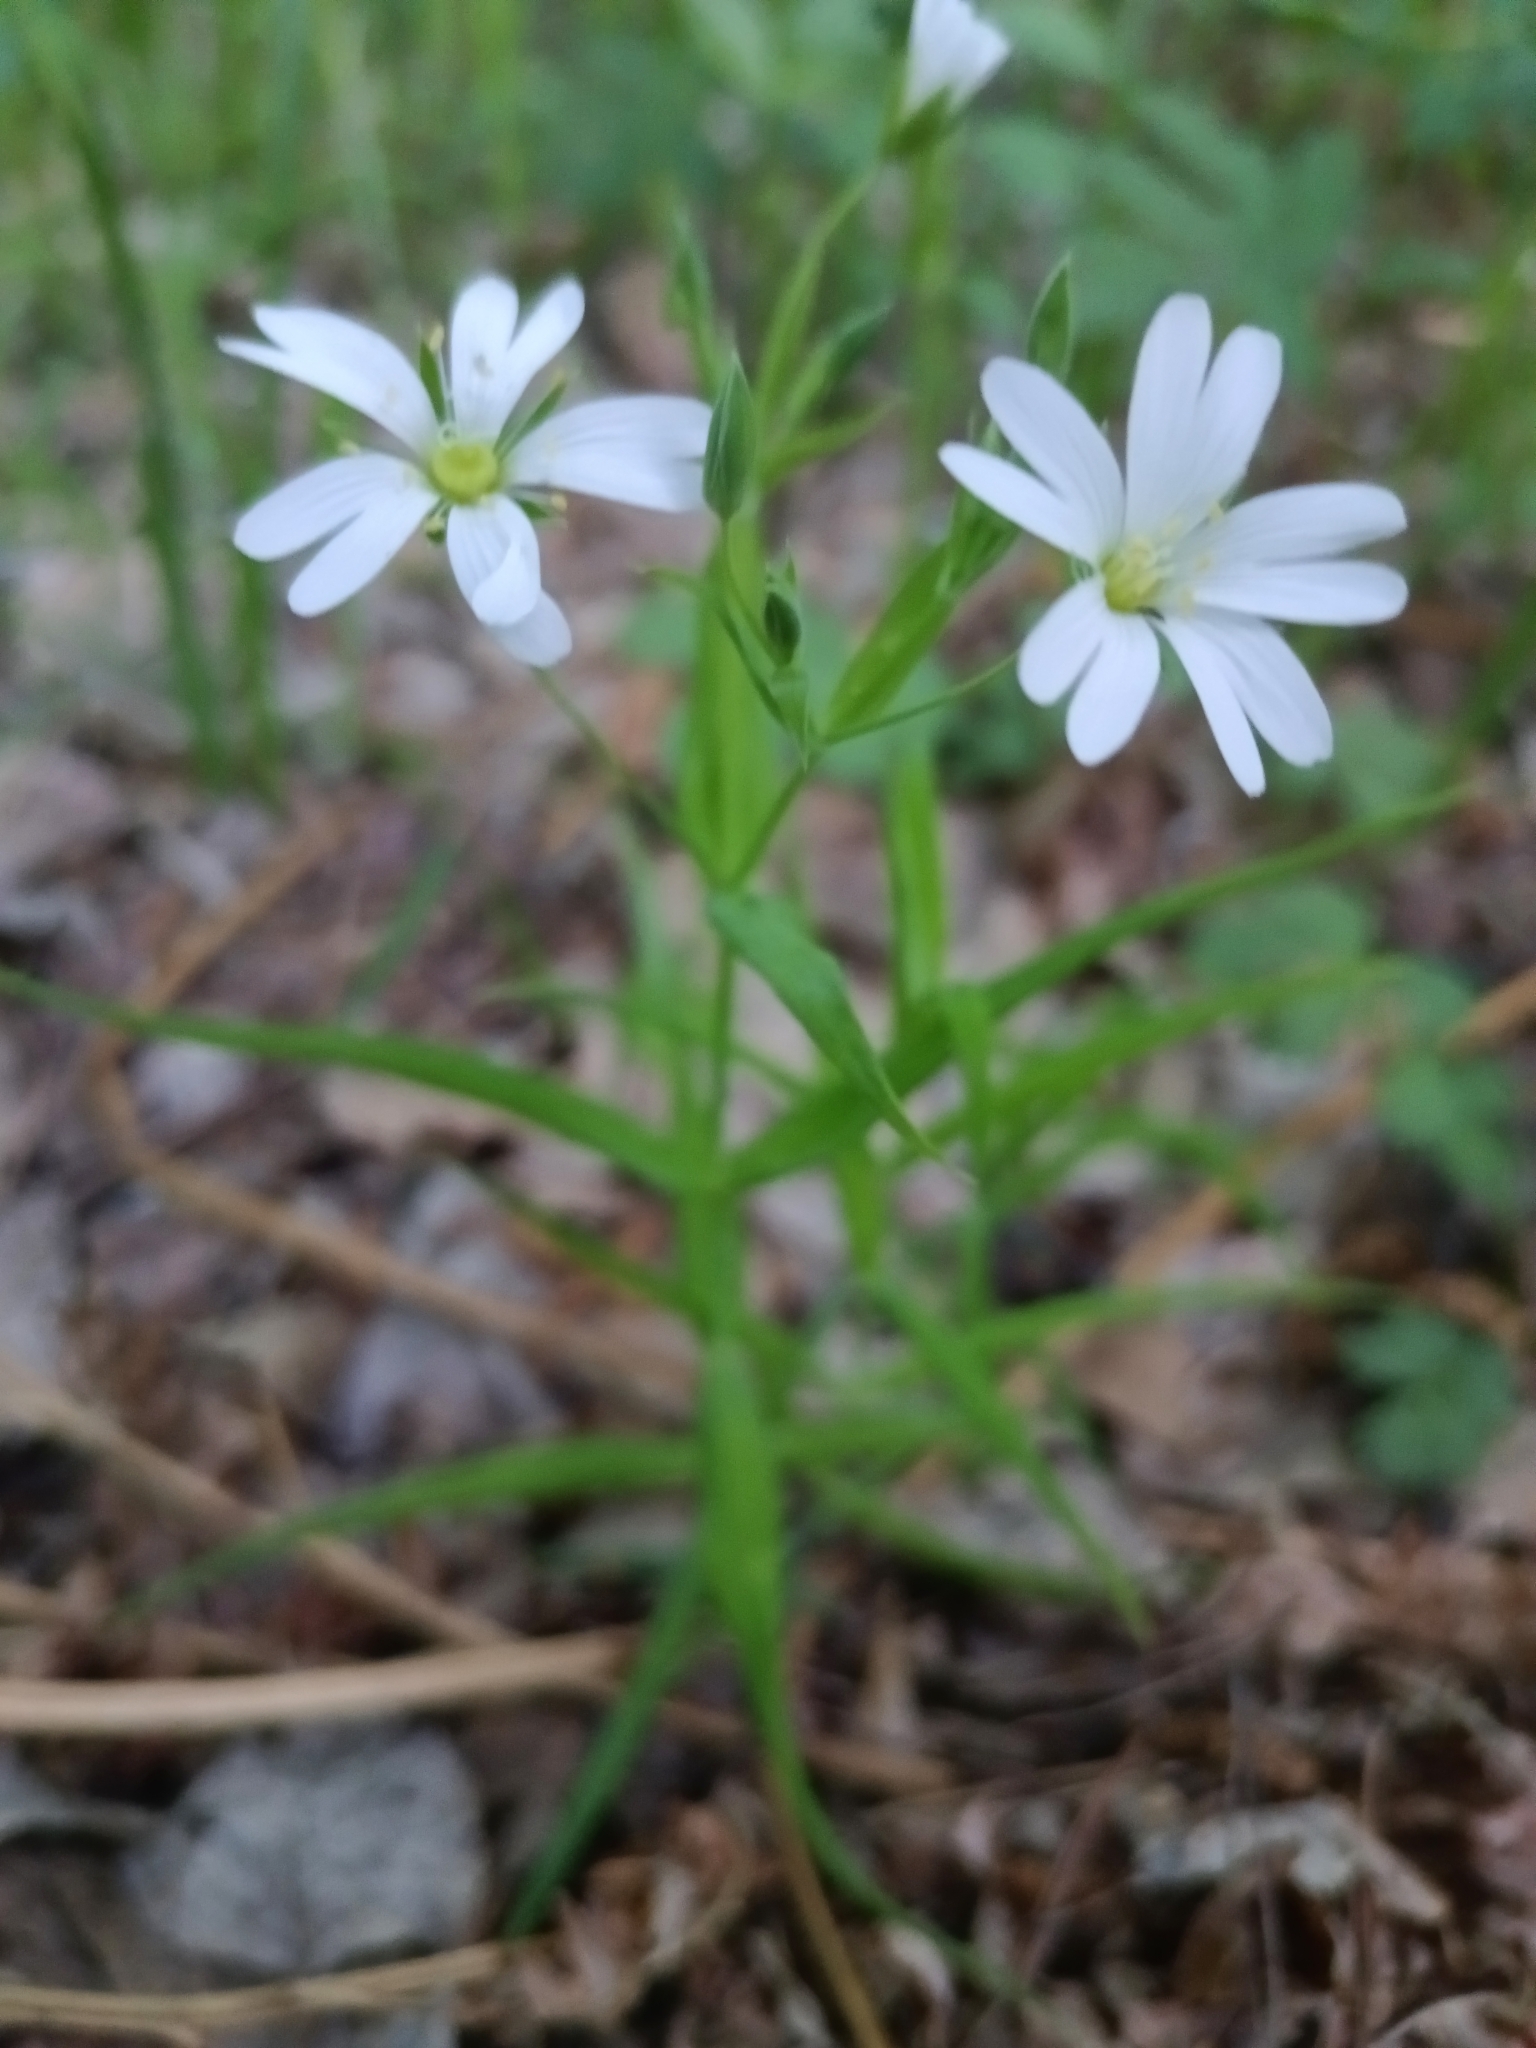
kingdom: Plantae
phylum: Tracheophyta
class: Magnoliopsida
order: Caryophyllales
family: Caryophyllaceae
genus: Rabelera
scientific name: Rabelera holostea
